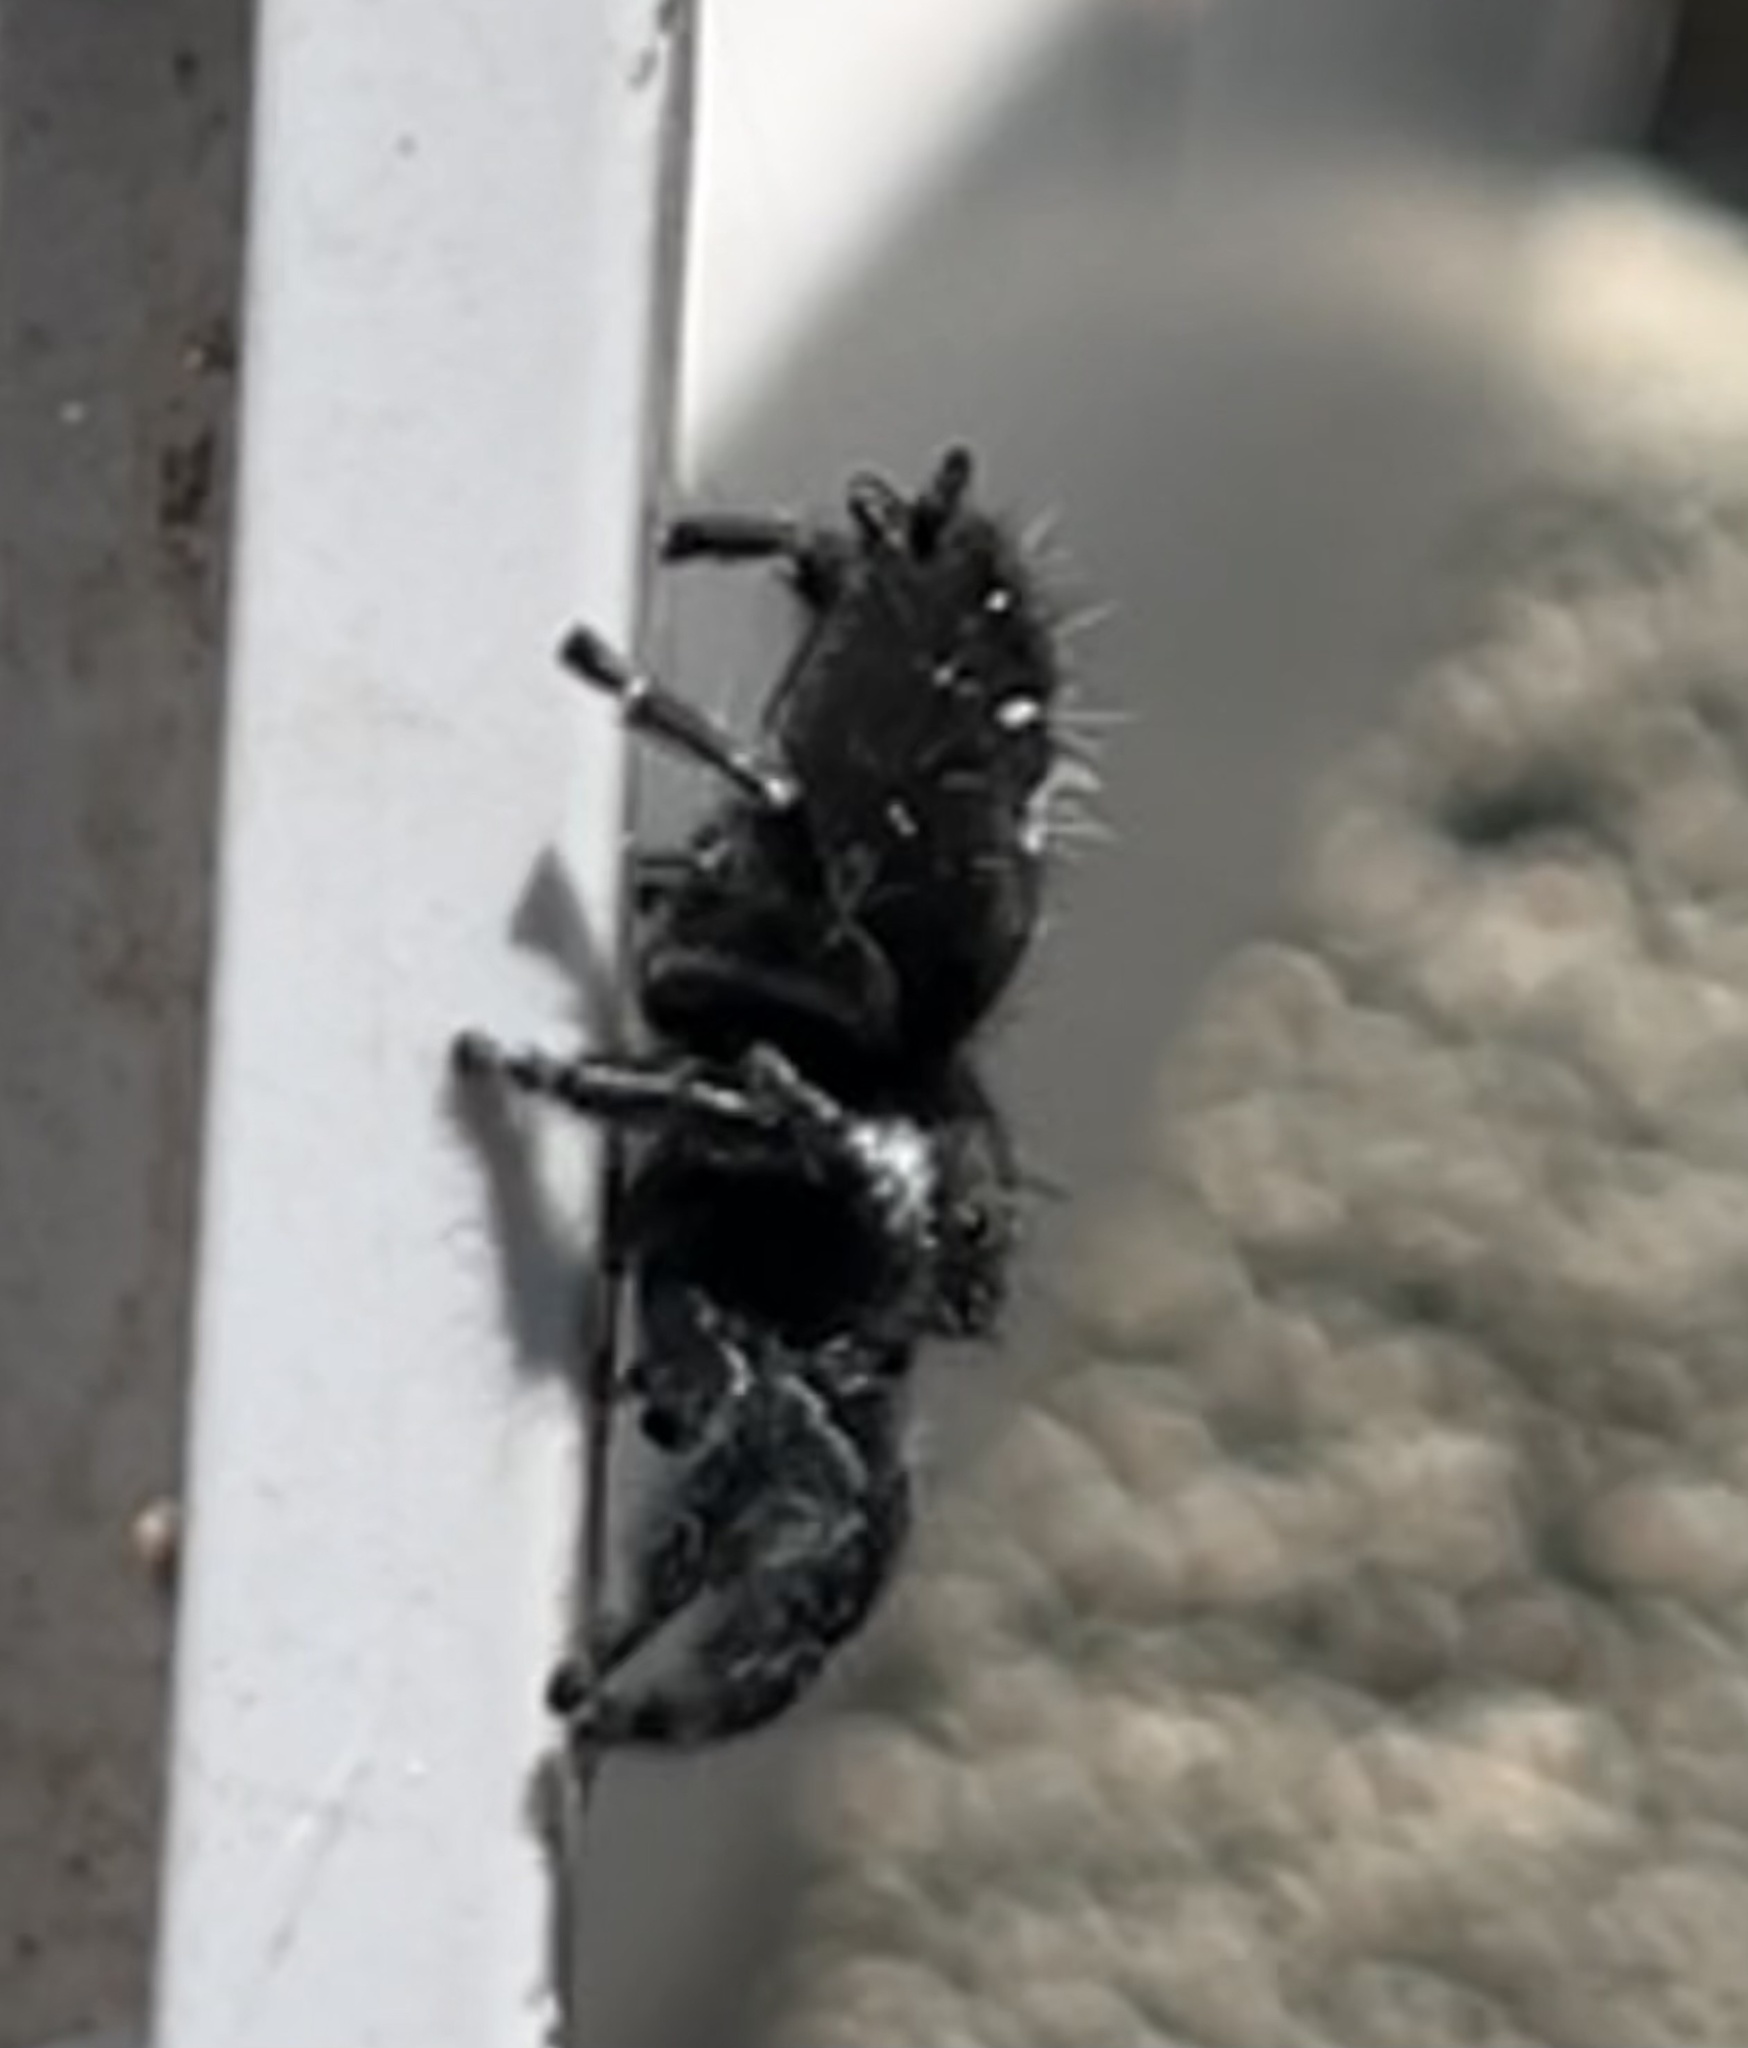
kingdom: Animalia
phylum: Arthropoda
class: Arachnida
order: Araneae
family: Salticidae
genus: Phidippus
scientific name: Phidippus audax
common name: Bold jumper
